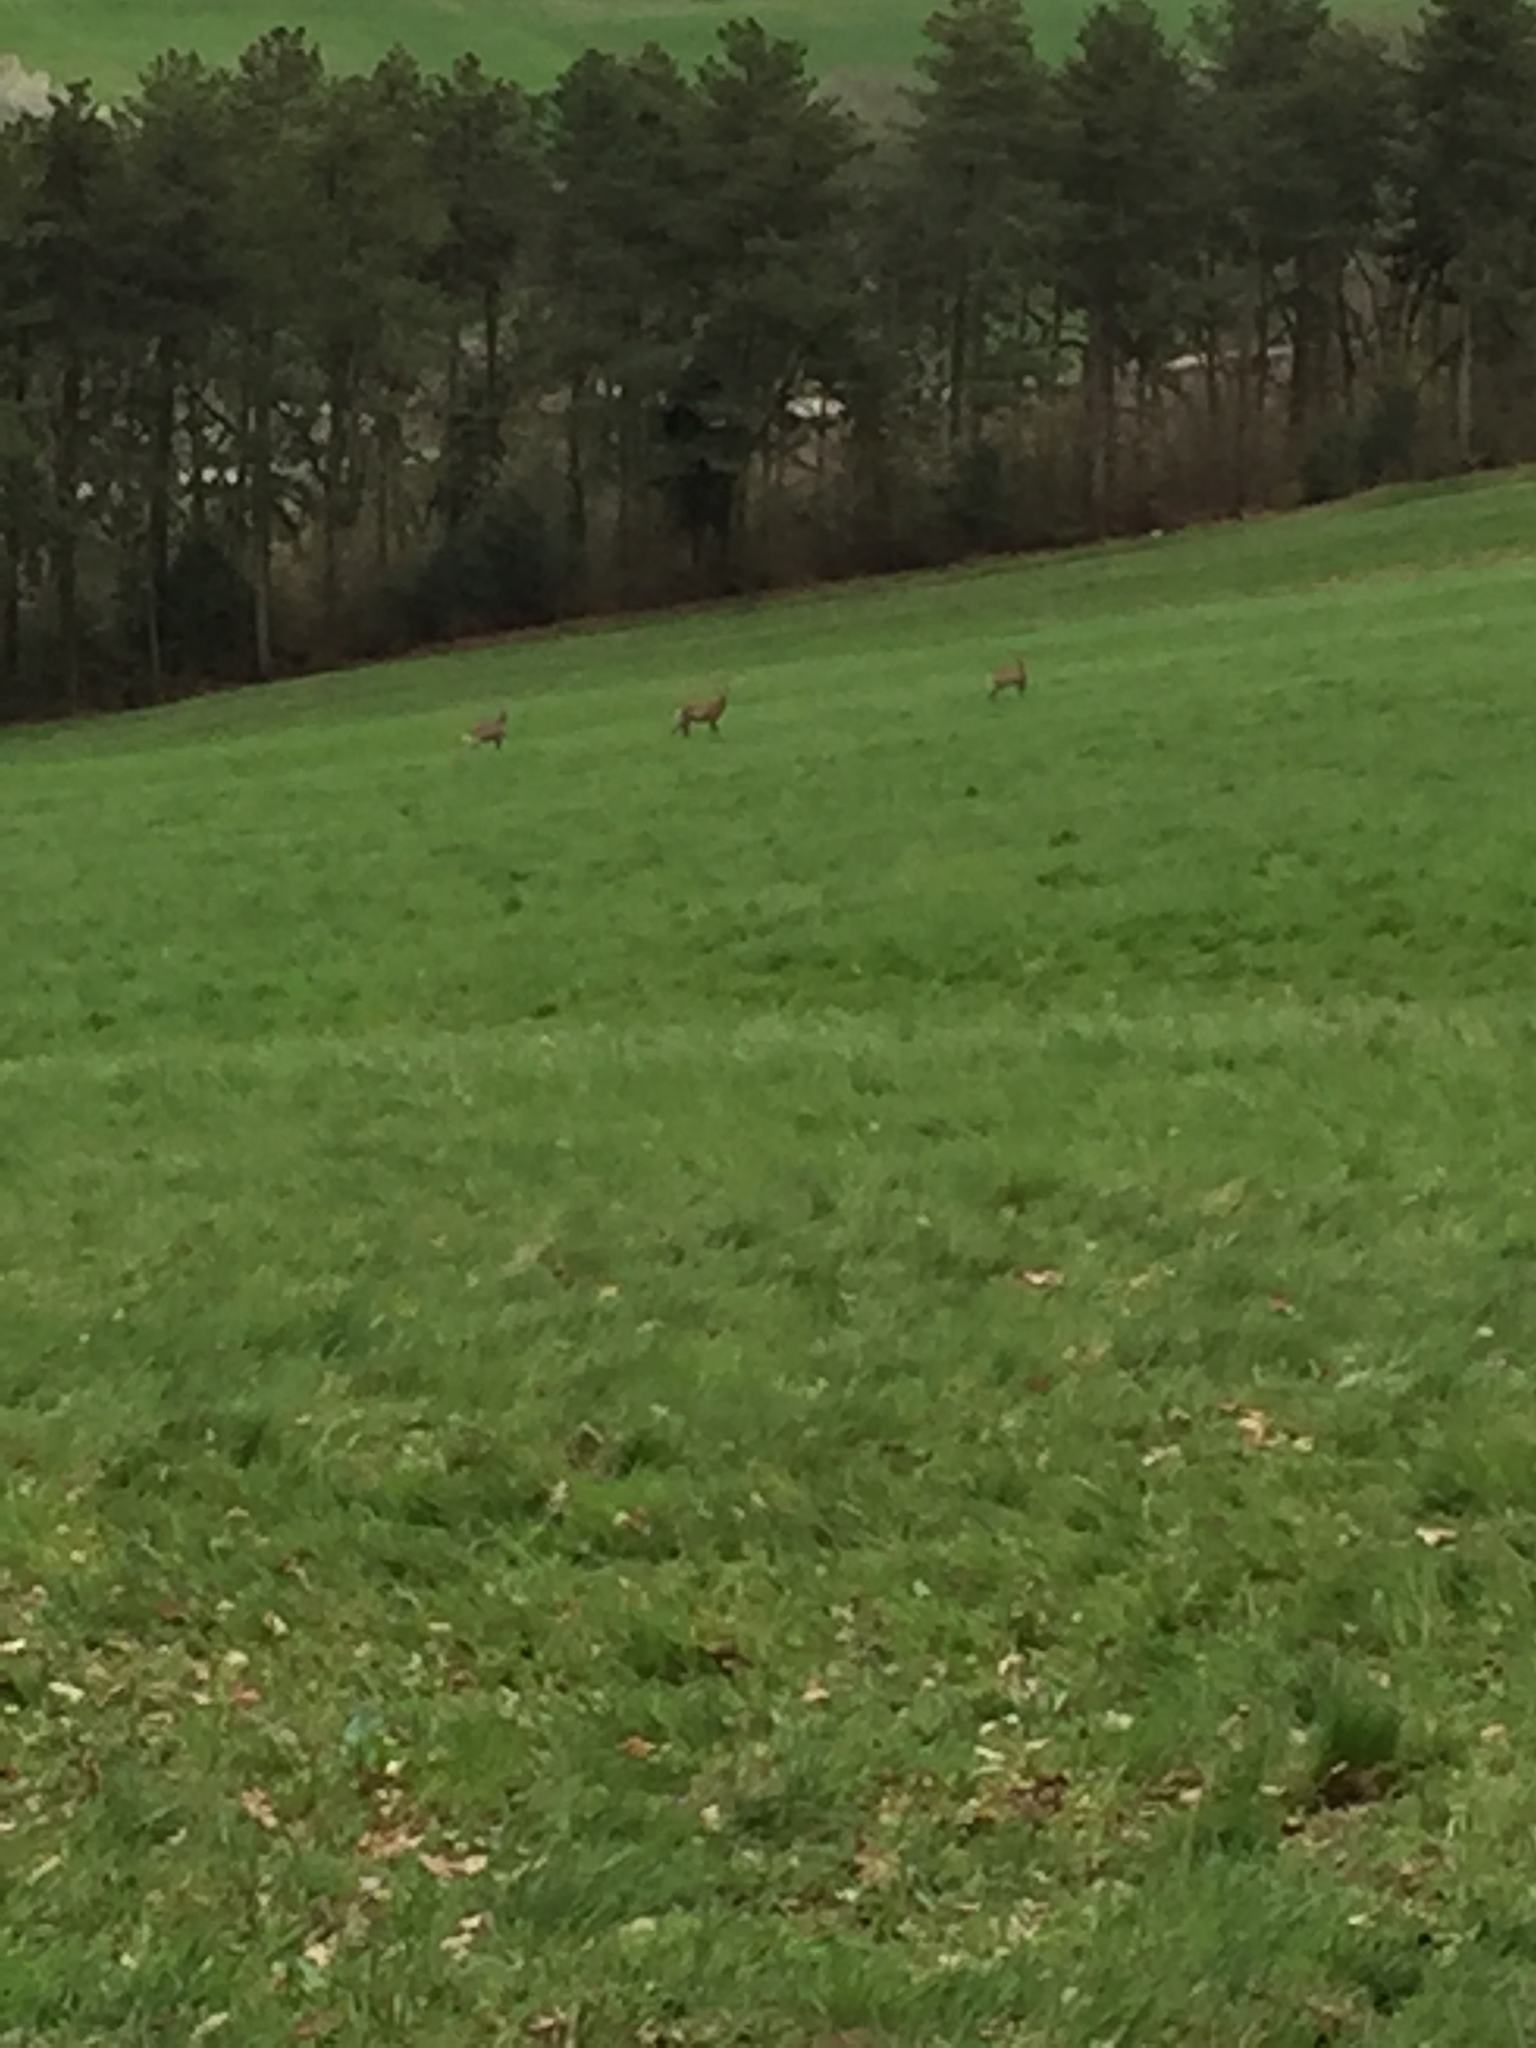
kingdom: Animalia
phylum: Chordata
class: Mammalia
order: Artiodactyla
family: Cervidae
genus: Capreolus
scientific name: Capreolus capreolus
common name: Western roe deer
